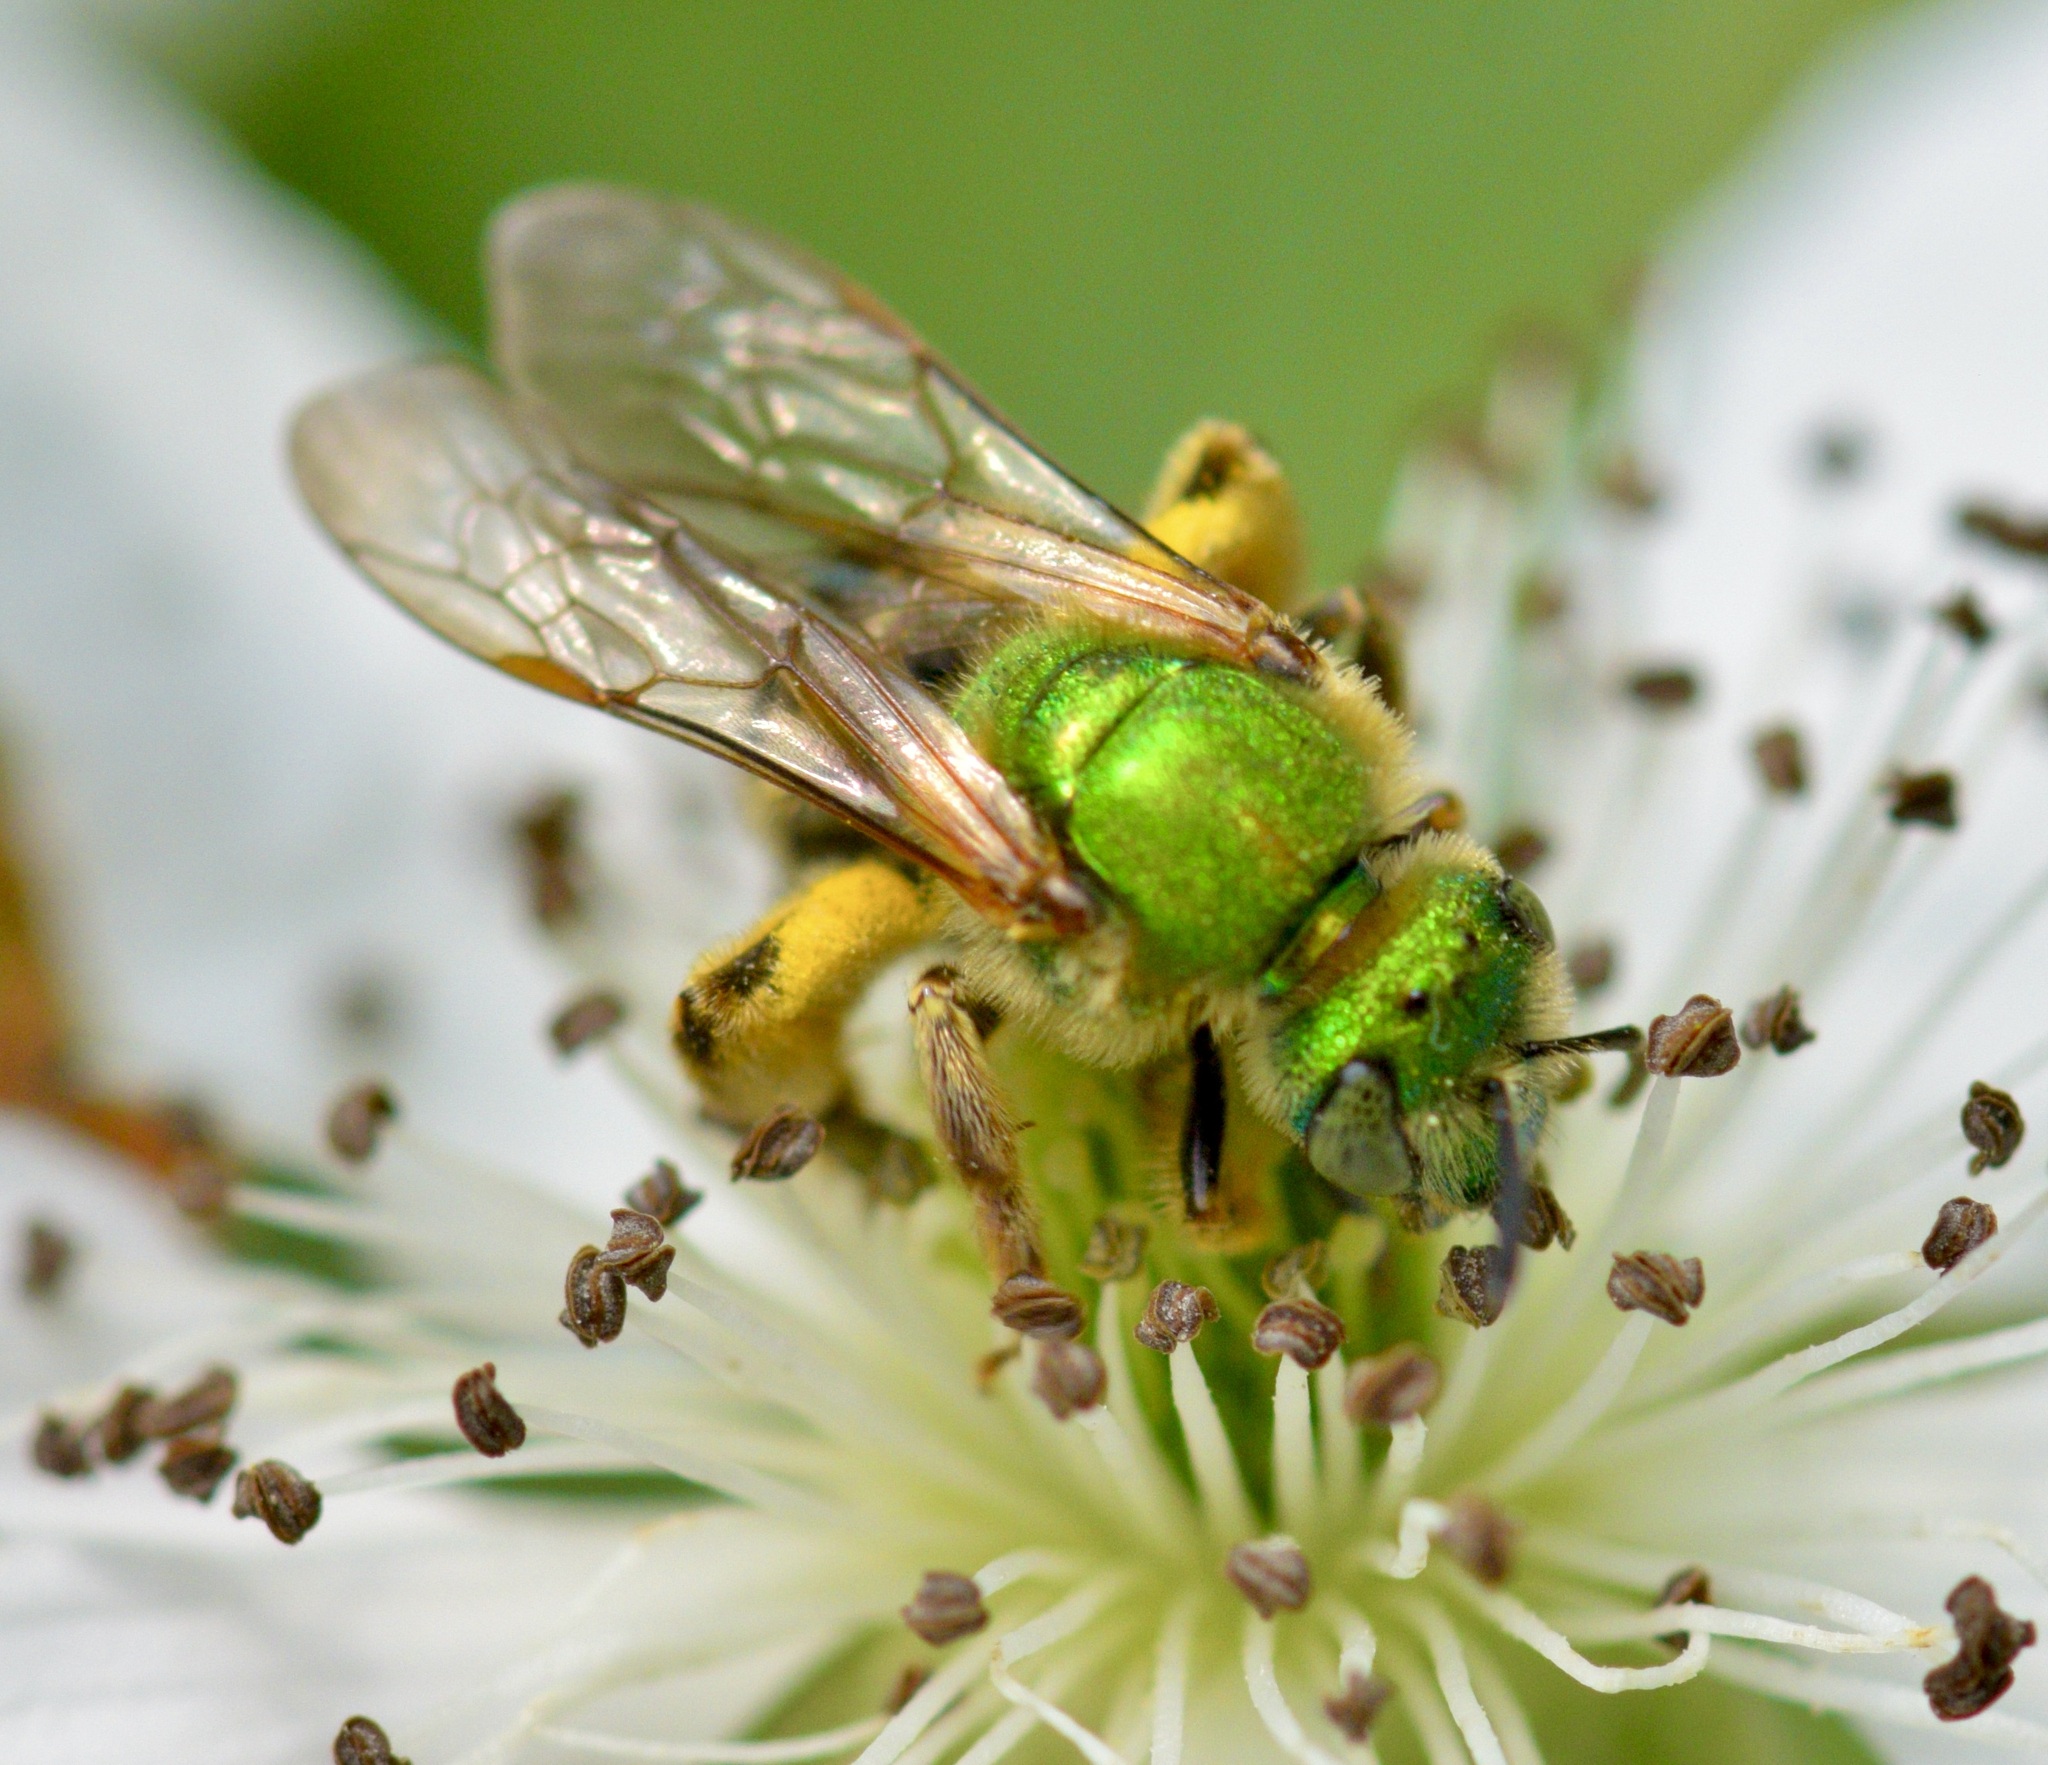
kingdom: Animalia
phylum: Arthropoda
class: Insecta
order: Hymenoptera
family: Halictidae
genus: Agapostemon
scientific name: Agapostemon virescens
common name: Bicolored striped sweat bee
